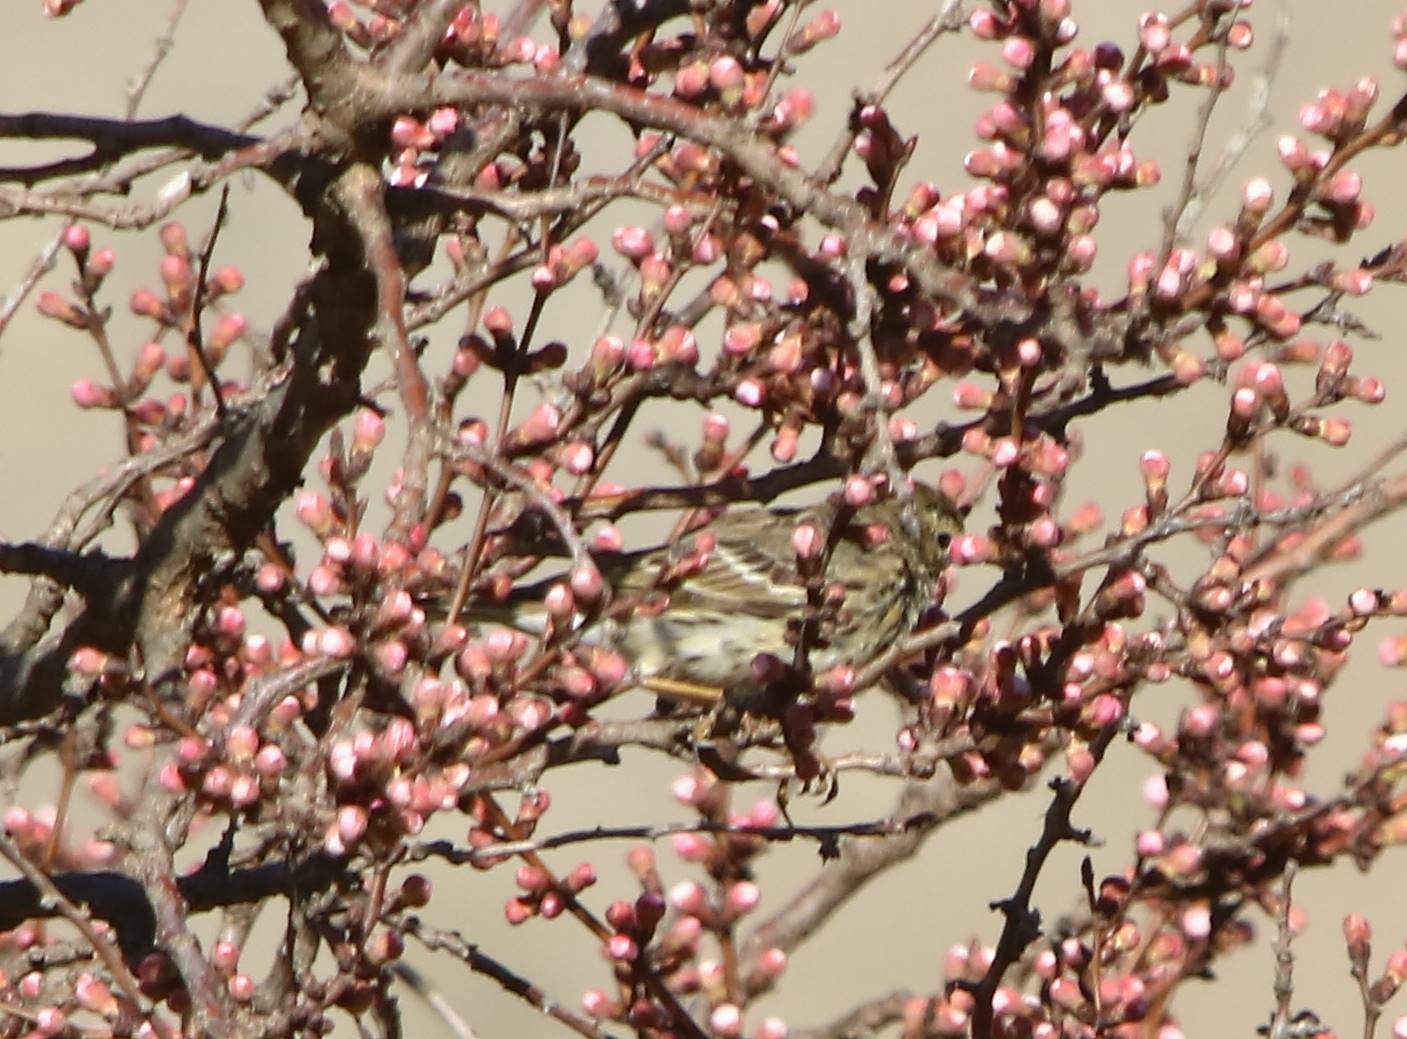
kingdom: Animalia
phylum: Chordata
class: Aves
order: Passeriformes
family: Motacillidae
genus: Anthus
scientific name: Anthus pratensis
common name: Meadow pipit
